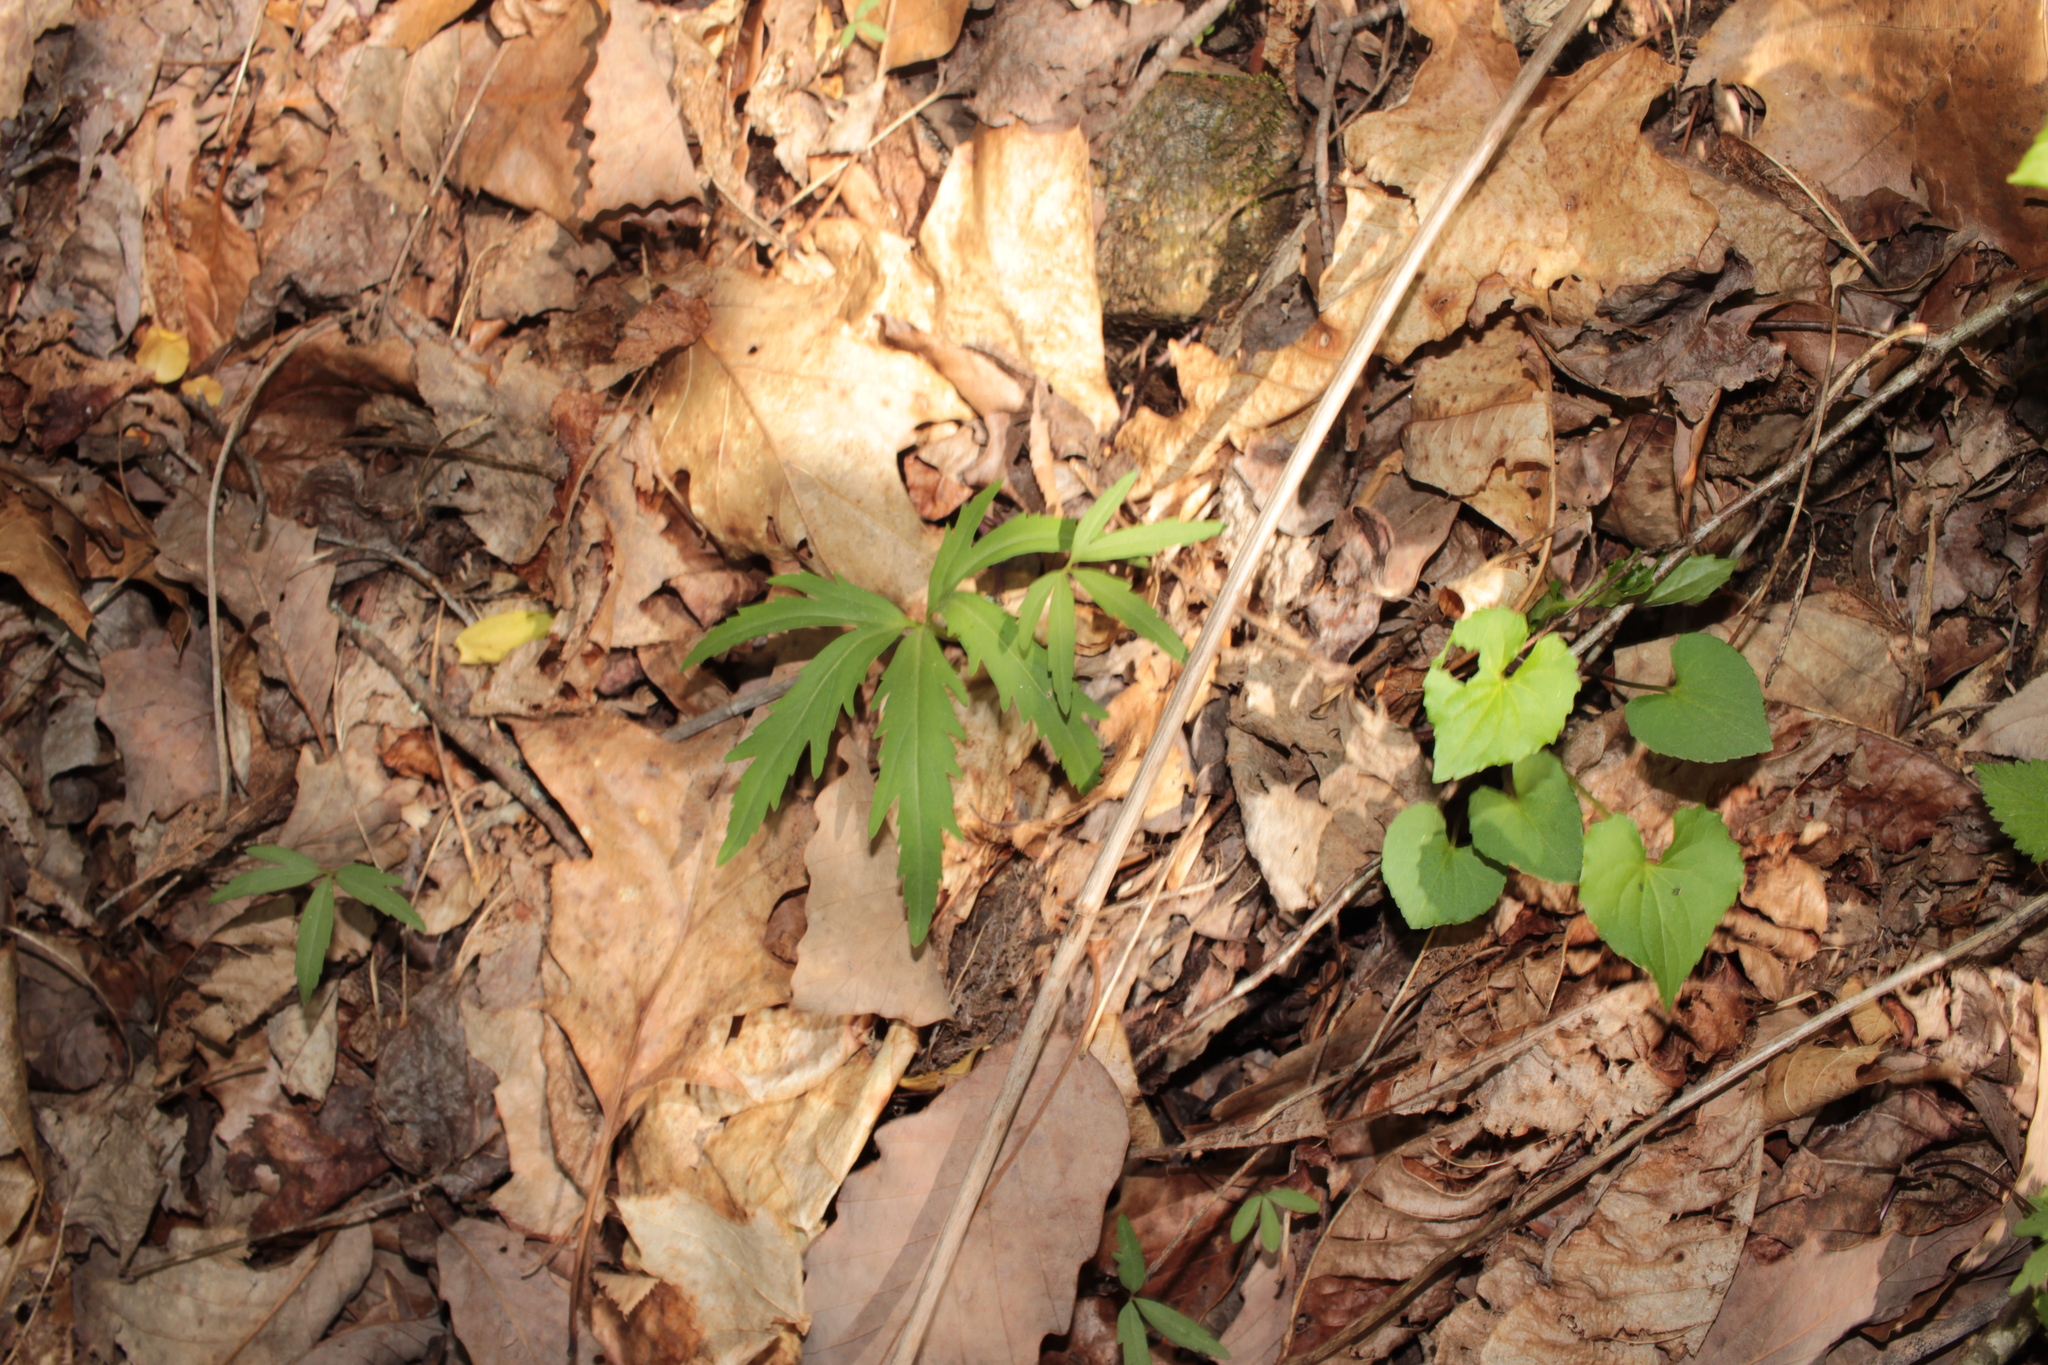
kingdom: Plantae
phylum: Tracheophyta
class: Magnoliopsida
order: Brassicales
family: Brassicaceae
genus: Cardamine
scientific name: Cardamine concatenata
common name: Cut-leaf toothcup
